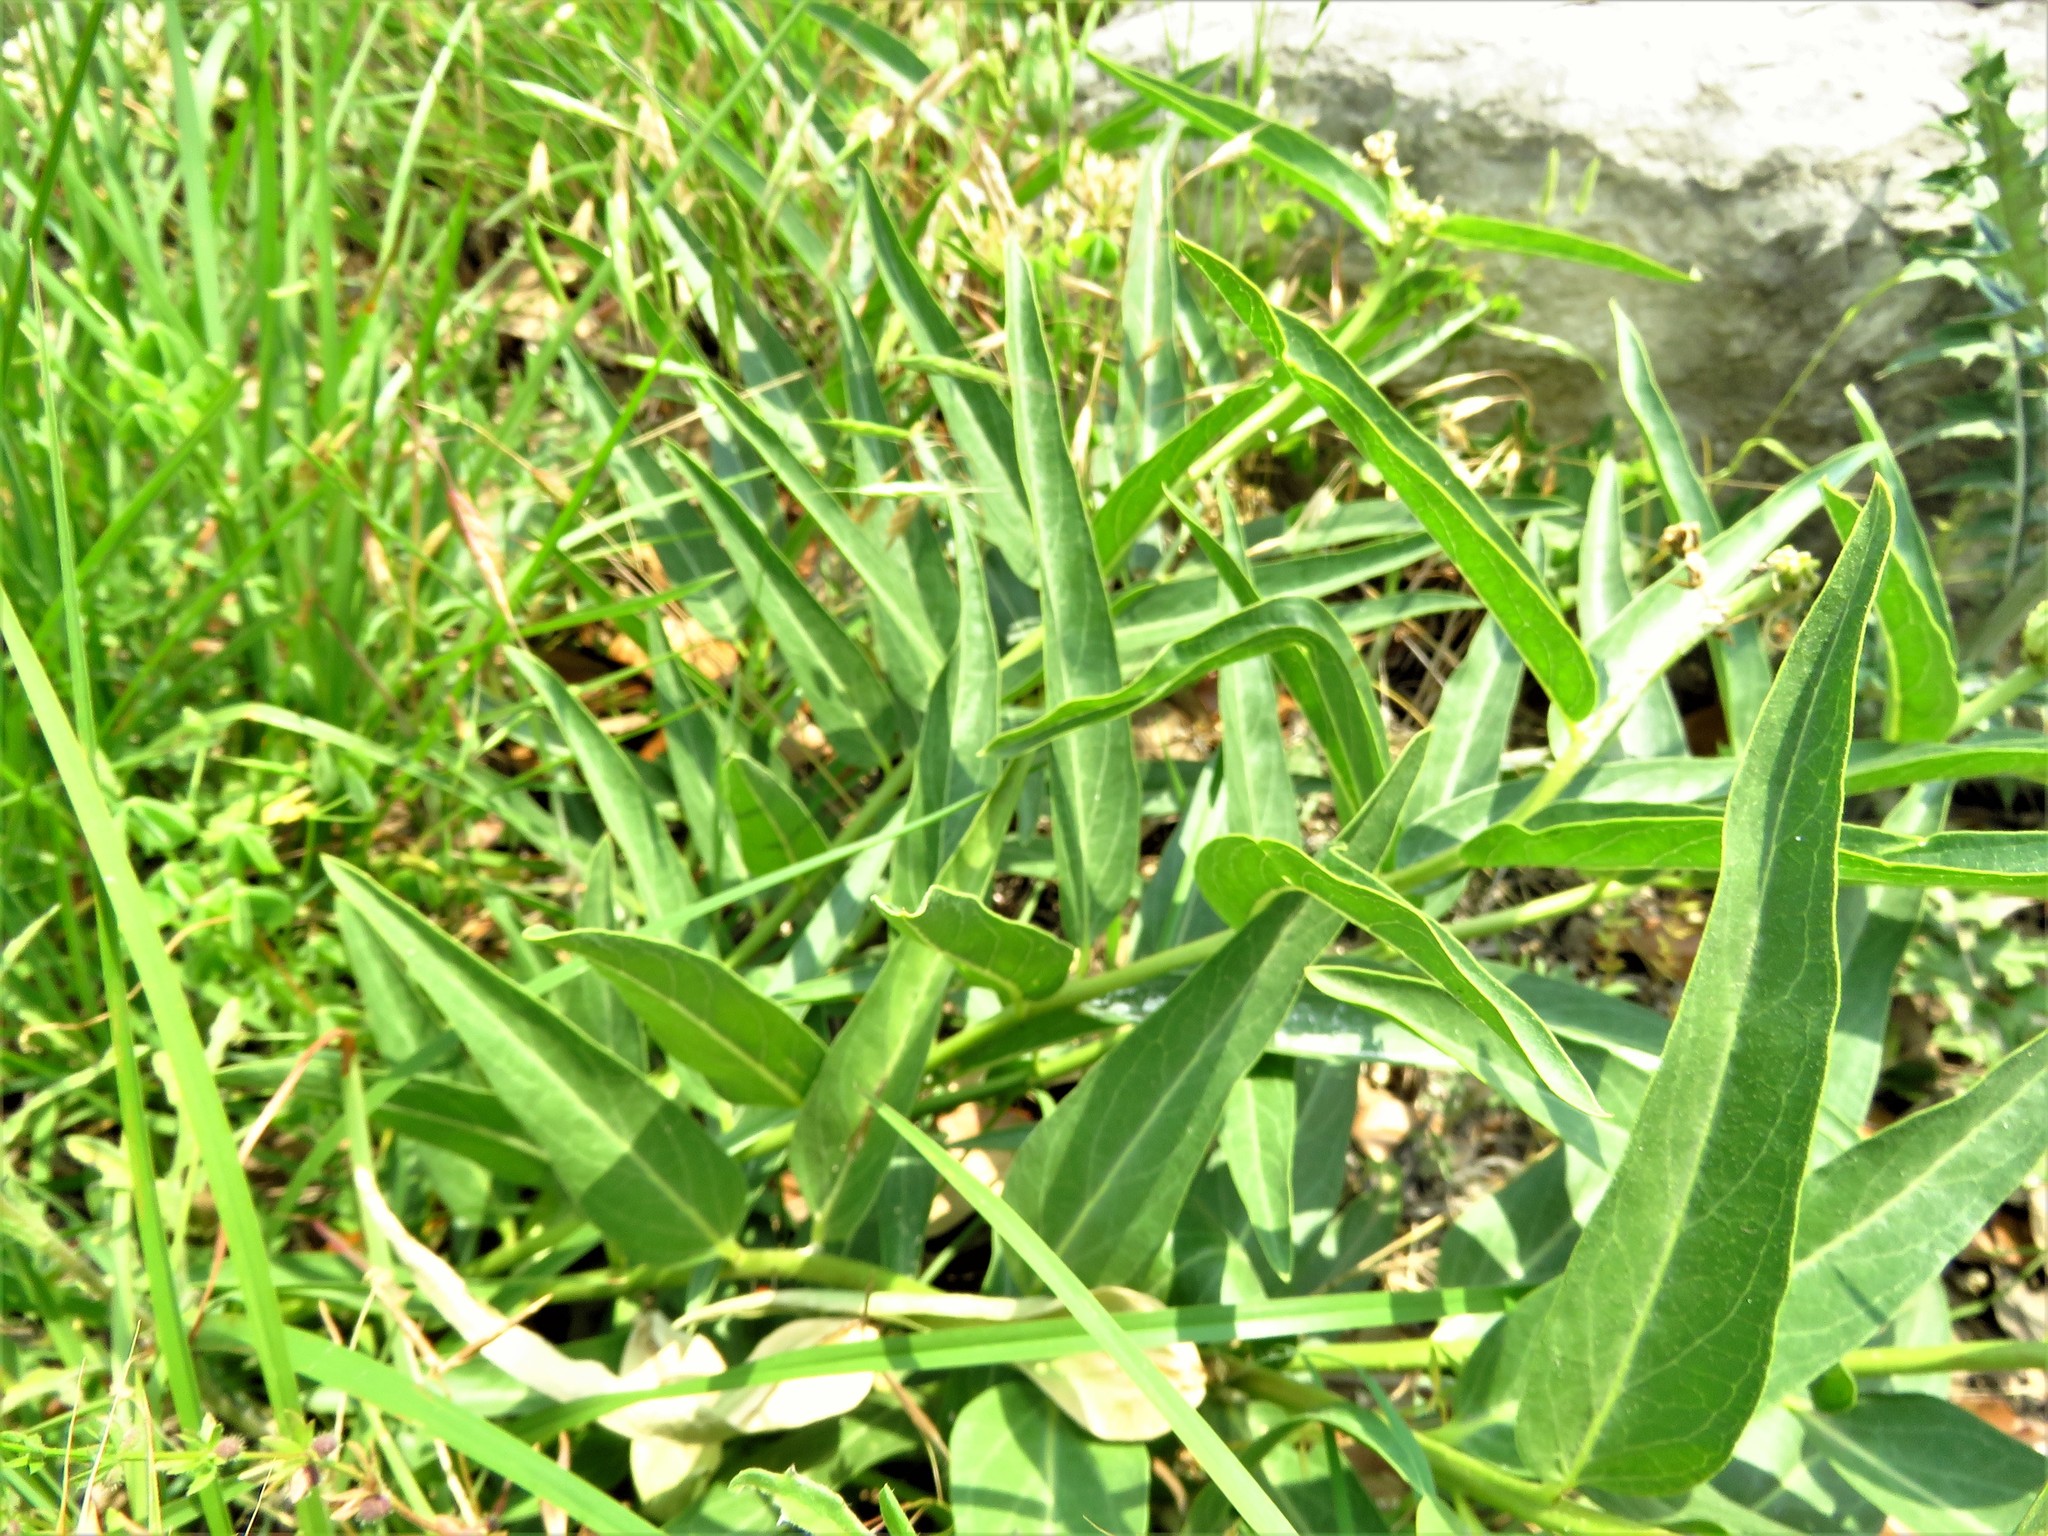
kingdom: Plantae
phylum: Tracheophyta
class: Magnoliopsida
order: Gentianales
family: Apocynaceae
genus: Asclepias
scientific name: Asclepias asperula
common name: Antelope horns
